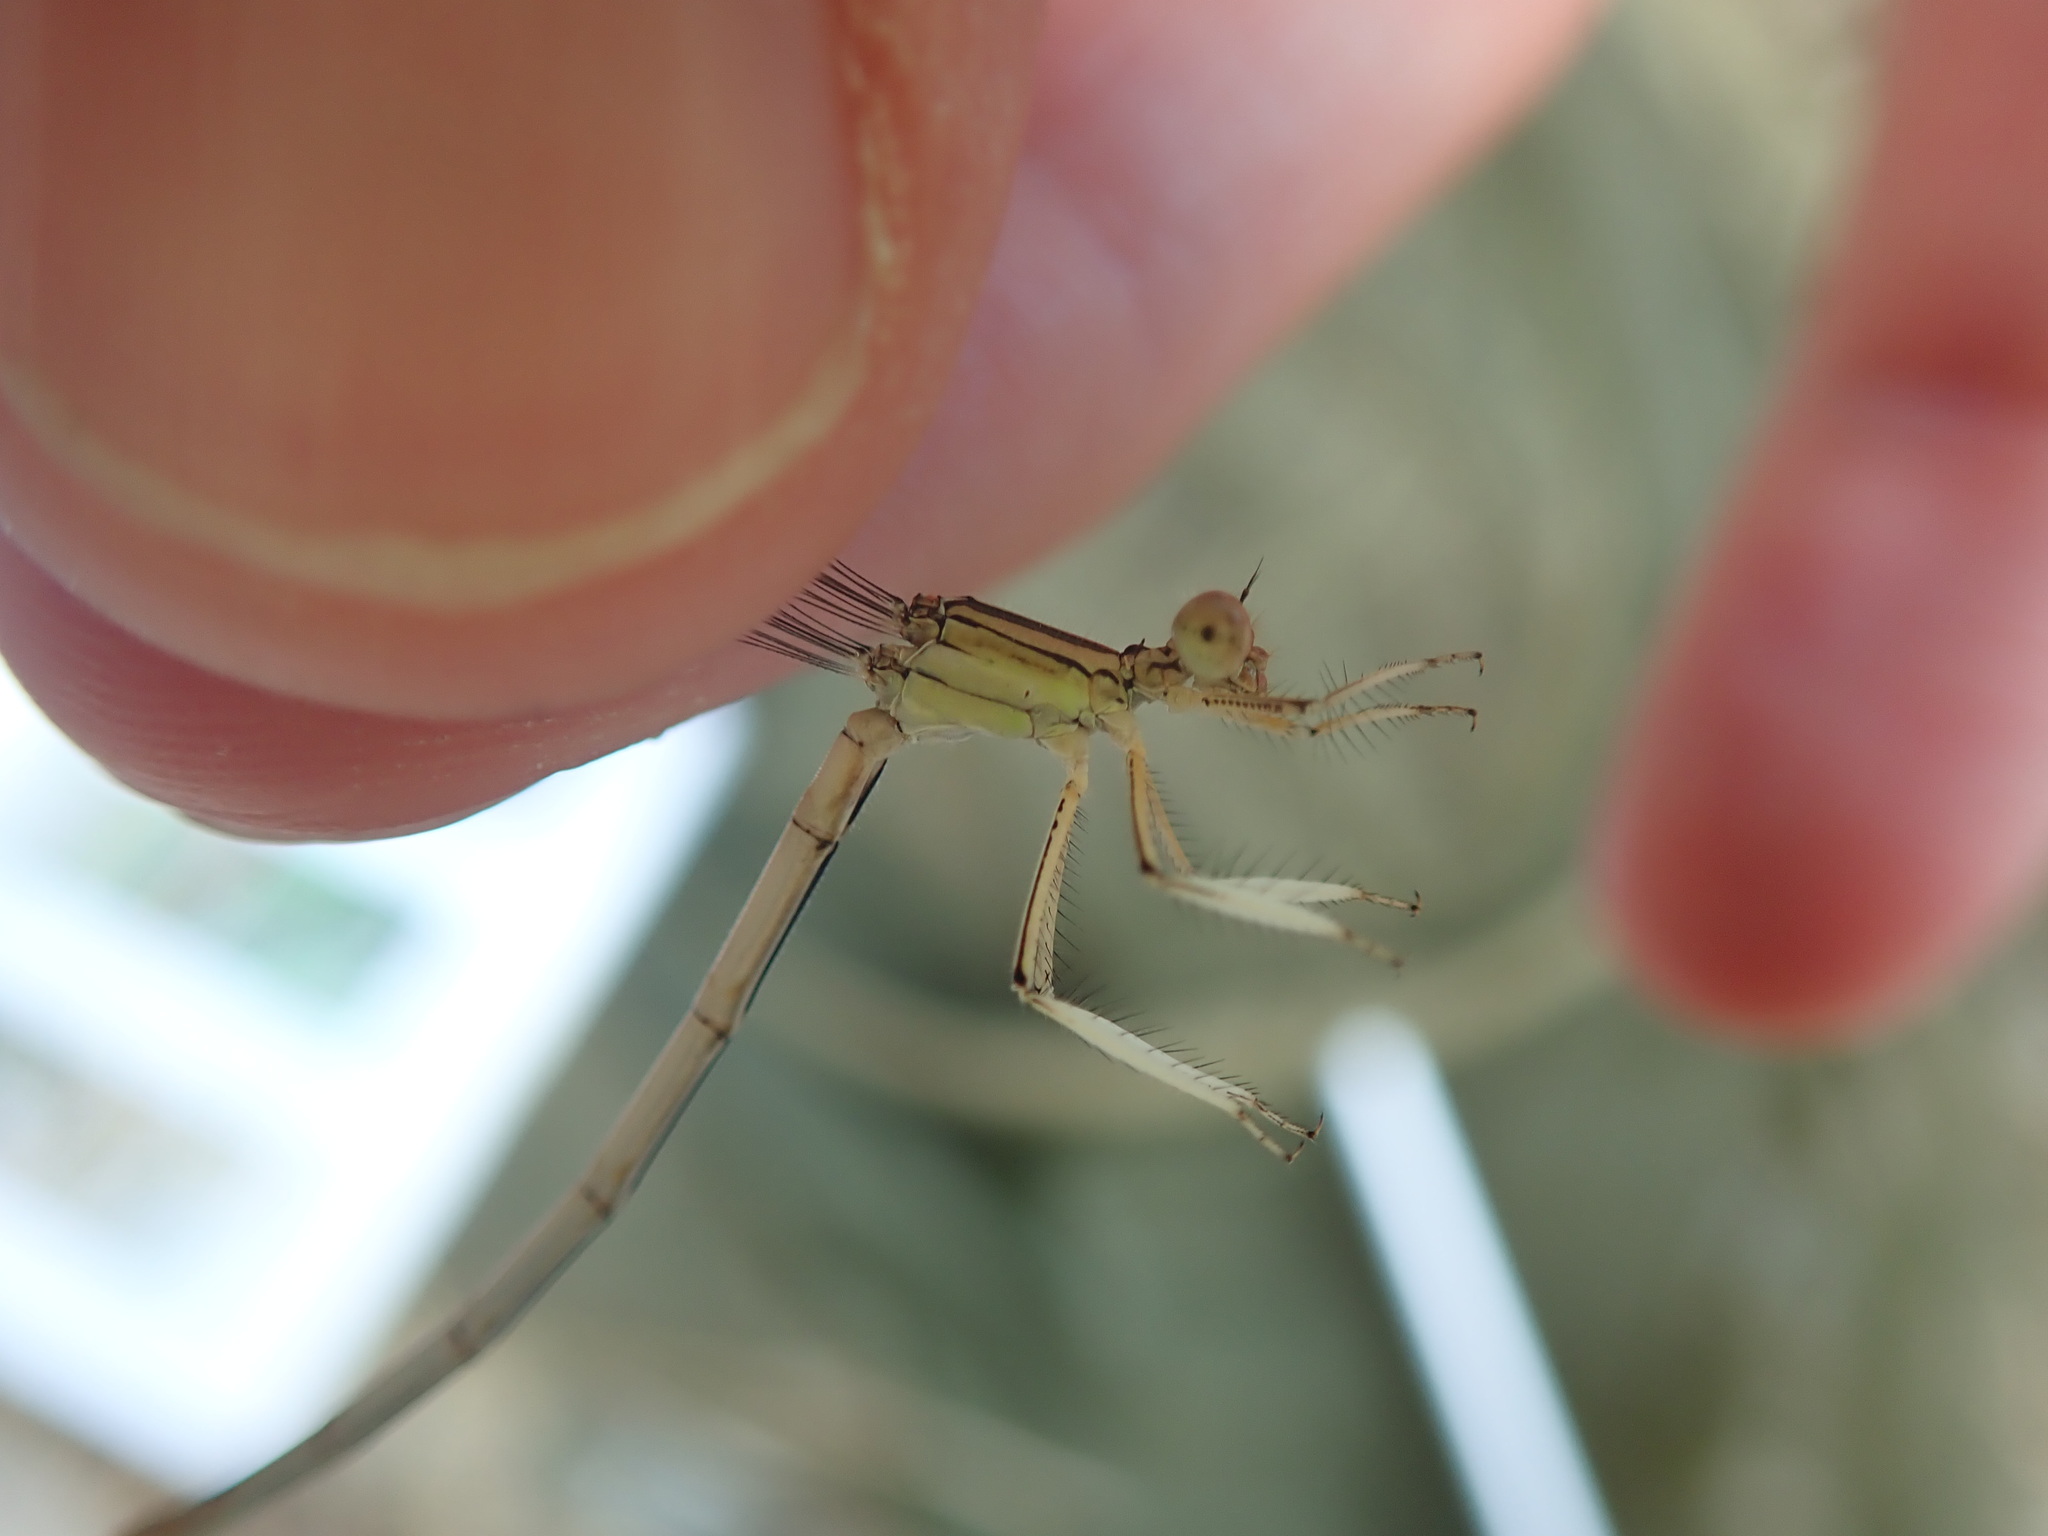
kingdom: Animalia
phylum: Arthropoda
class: Insecta
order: Odonata
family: Platycnemididae
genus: Platycnemis
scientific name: Platycnemis latipes
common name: White featherleg
